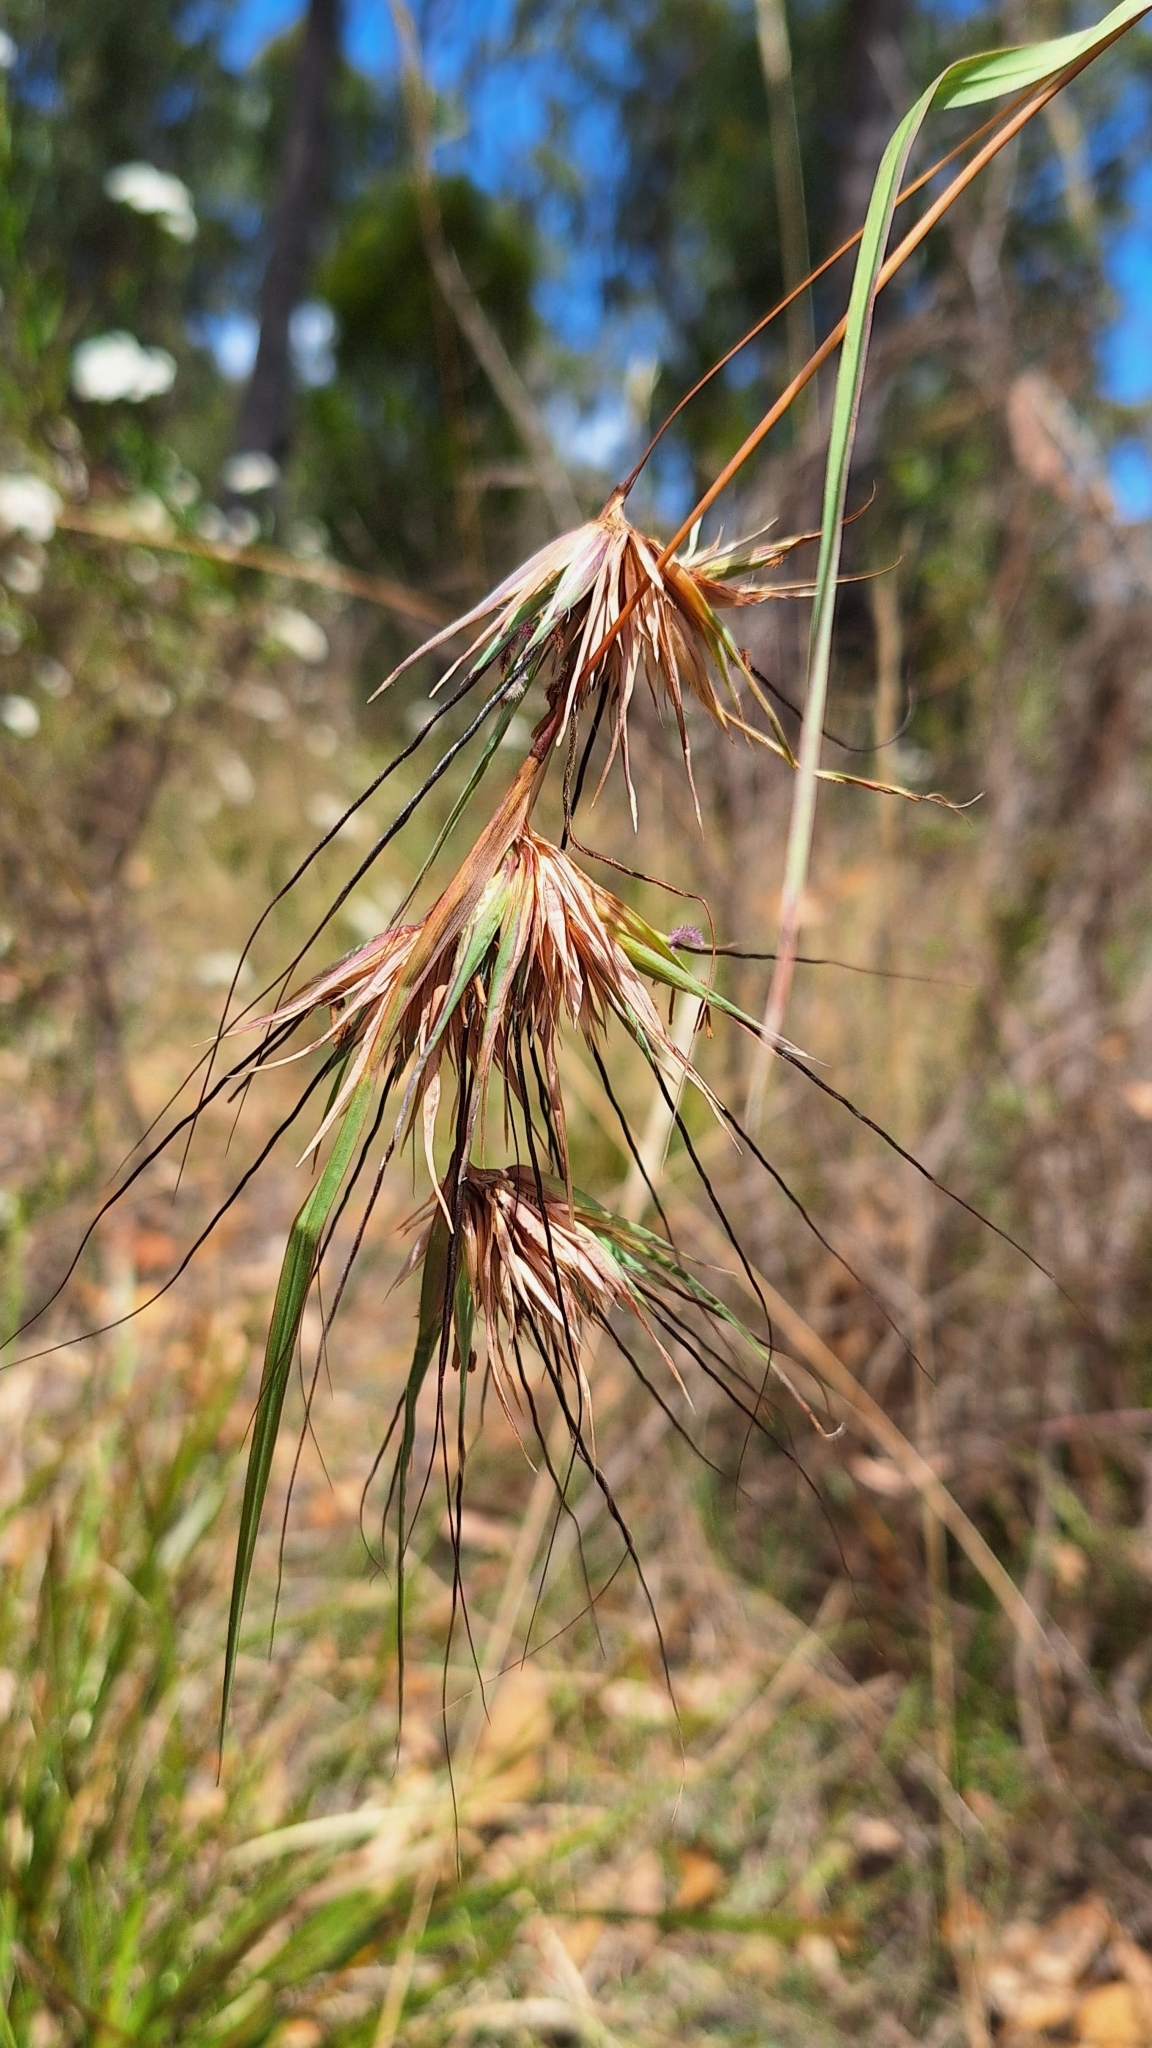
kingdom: Plantae
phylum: Tracheophyta
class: Liliopsida
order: Poales
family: Poaceae
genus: Themeda
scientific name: Themeda triandra
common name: Kangaroo grass
